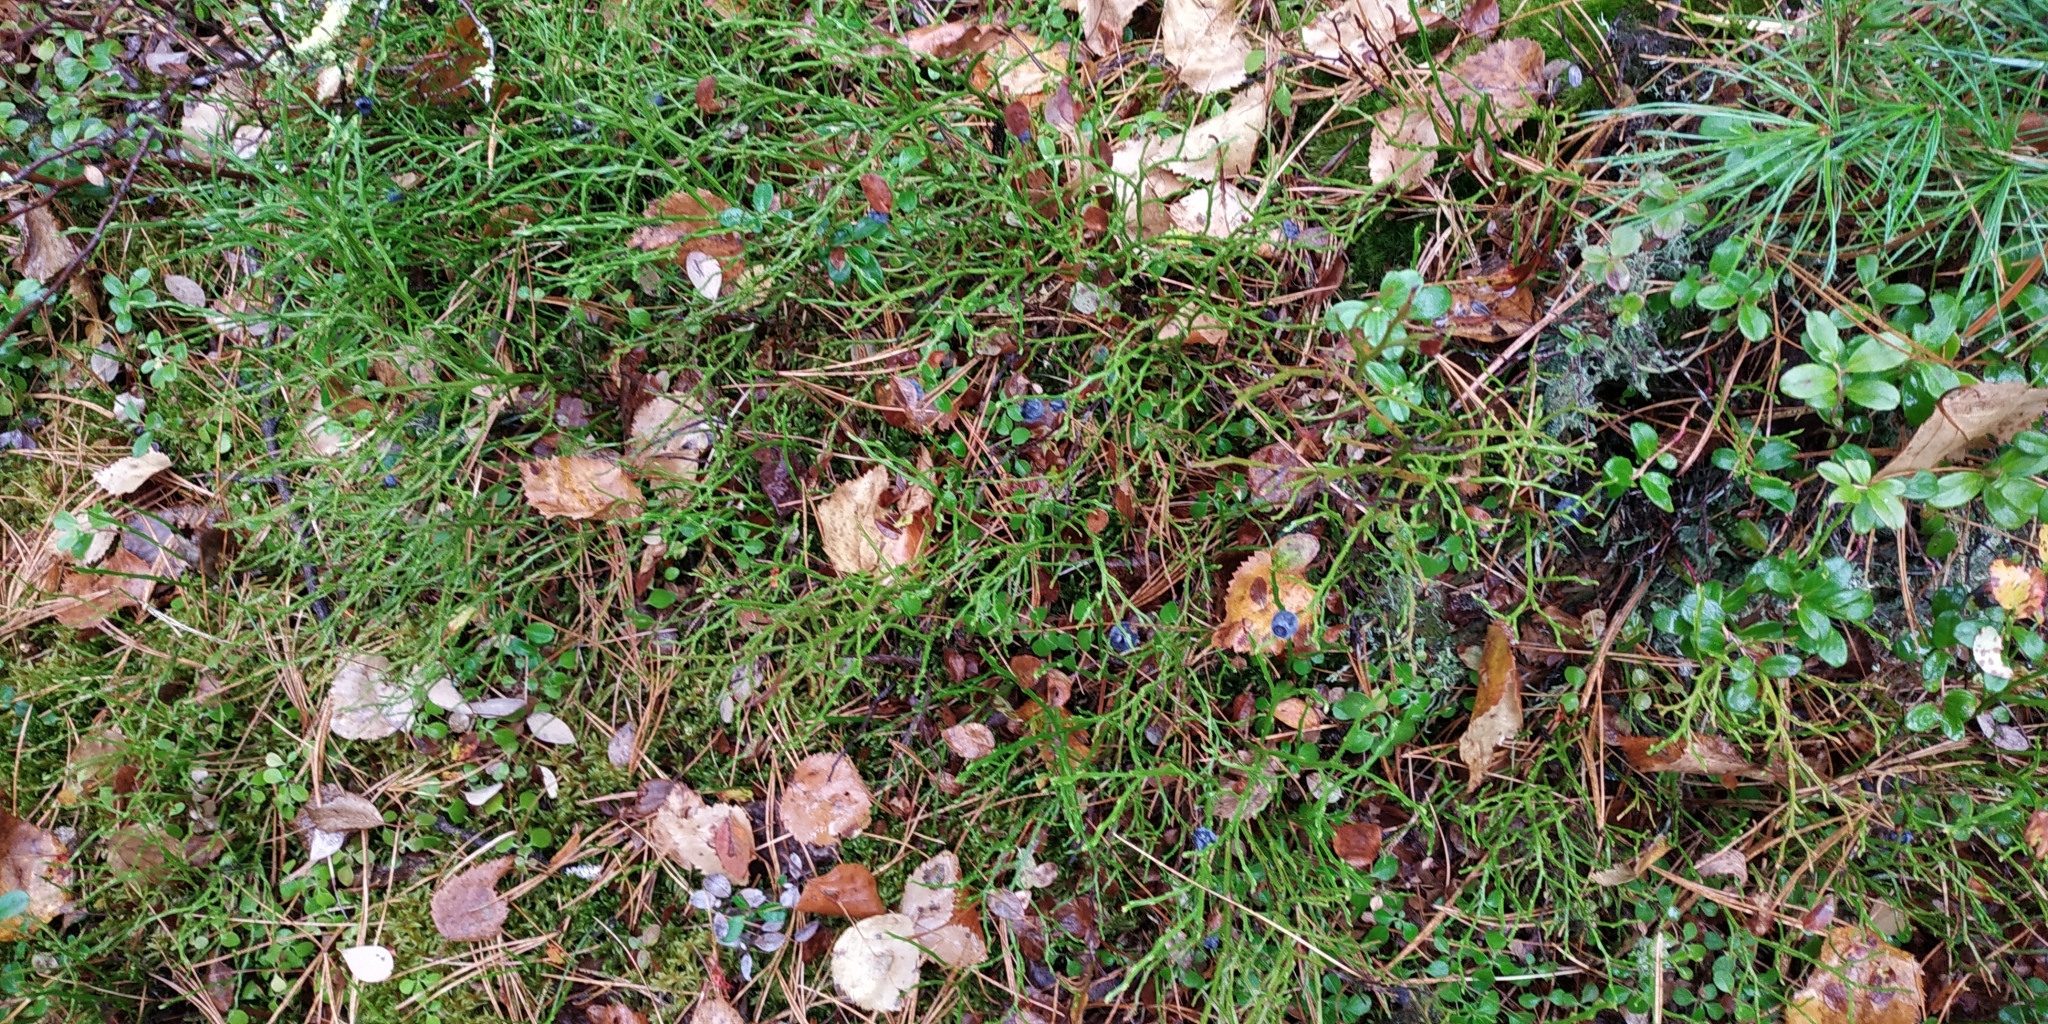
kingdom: Plantae
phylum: Tracheophyta
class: Magnoliopsida
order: Ericales
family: Ericaceae
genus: Vaccinium
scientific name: Vaccinium myrtillus
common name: Bilberry
